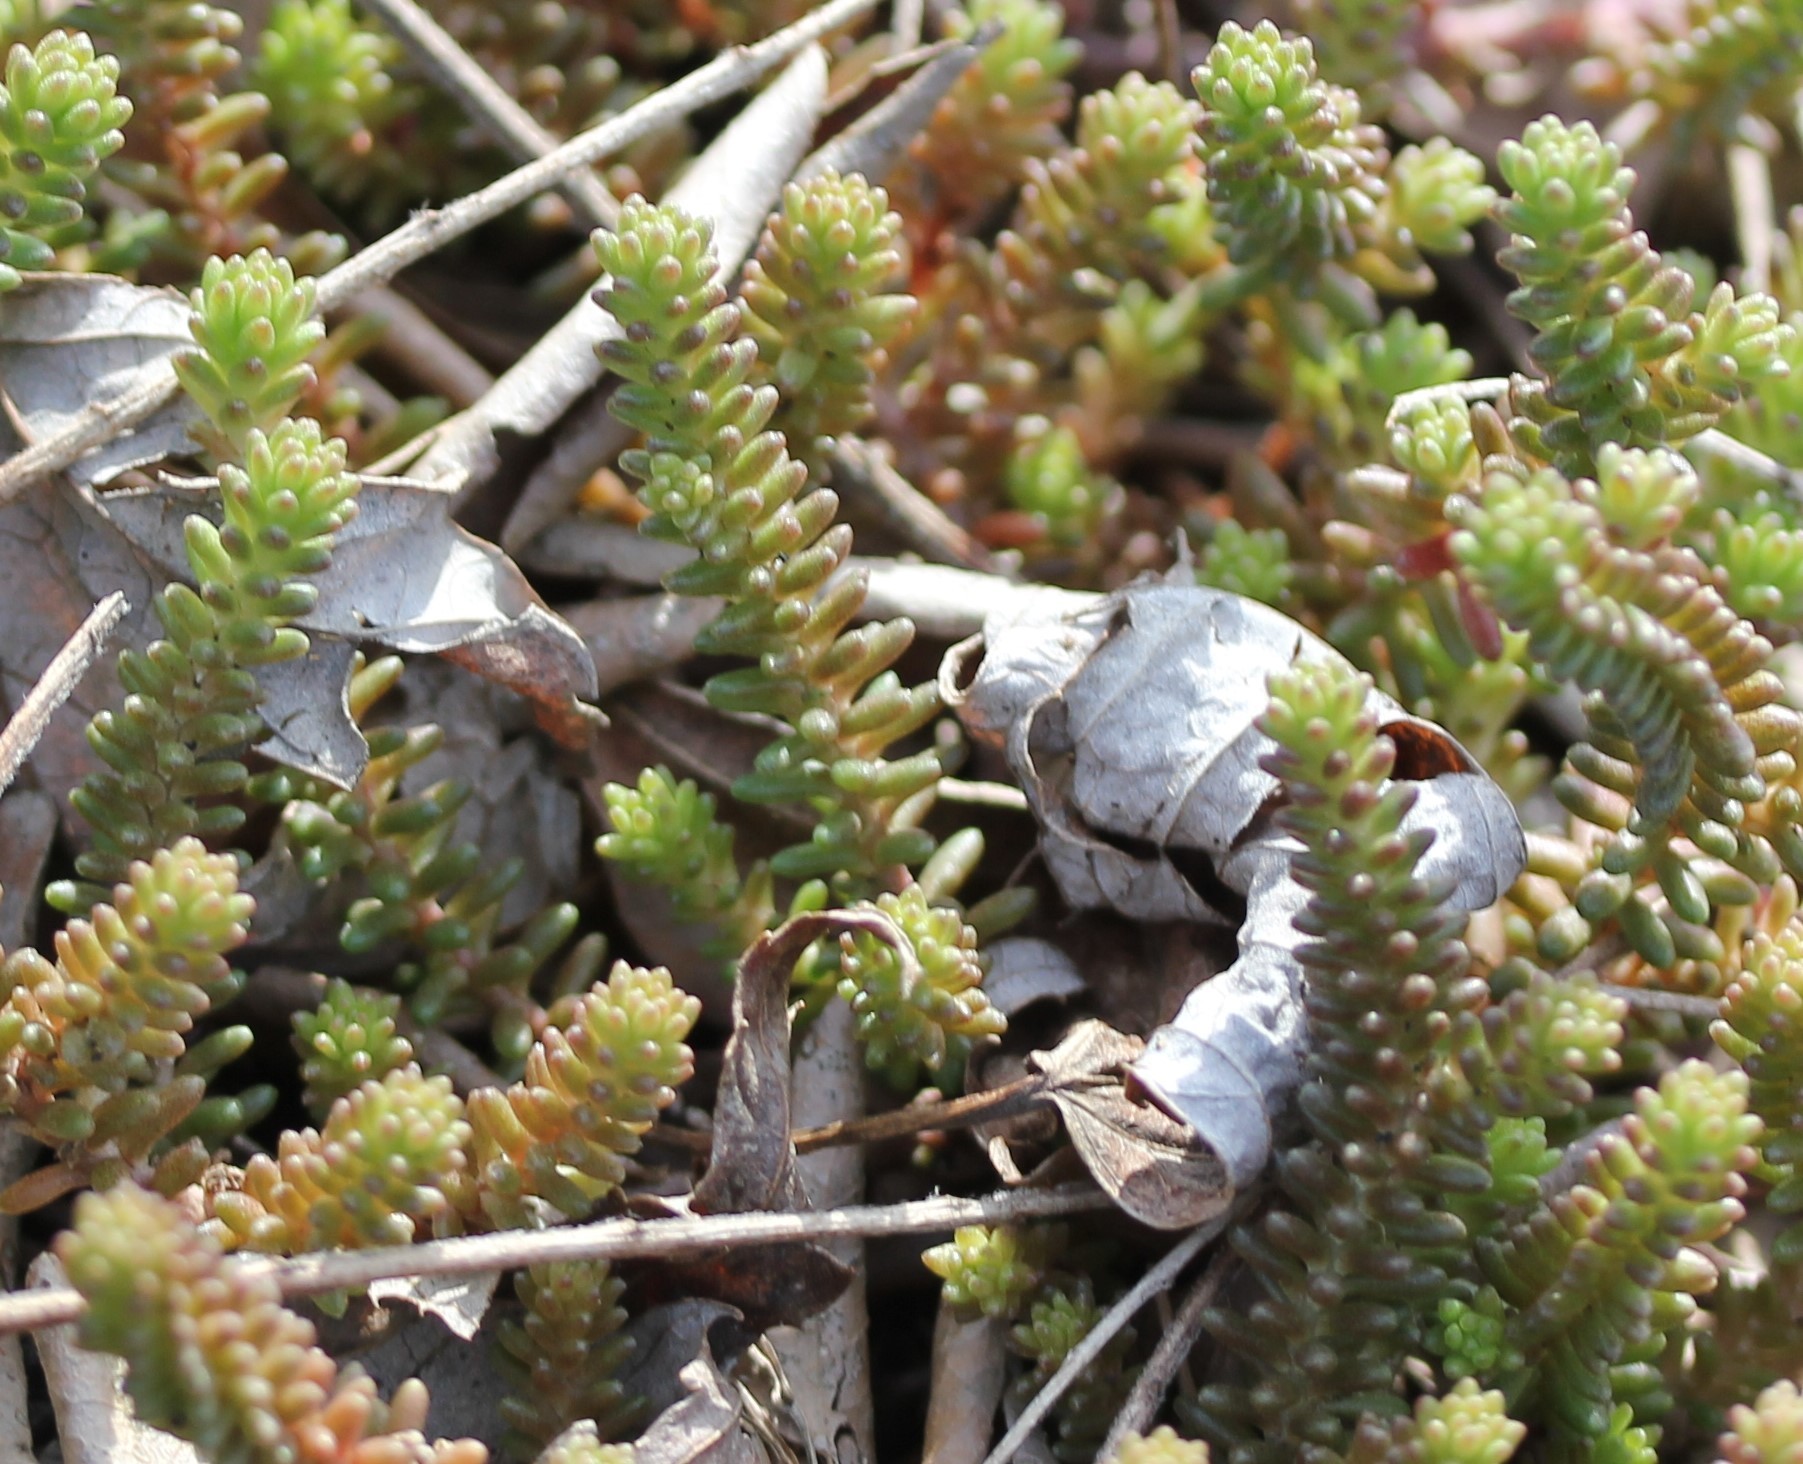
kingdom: Plantae
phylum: Tracheophyta
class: Magnoliopsida
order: Saxifragales
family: Crassulaceae
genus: Sedum
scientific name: Sedum sexangulare
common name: Tasteless stonecrop
